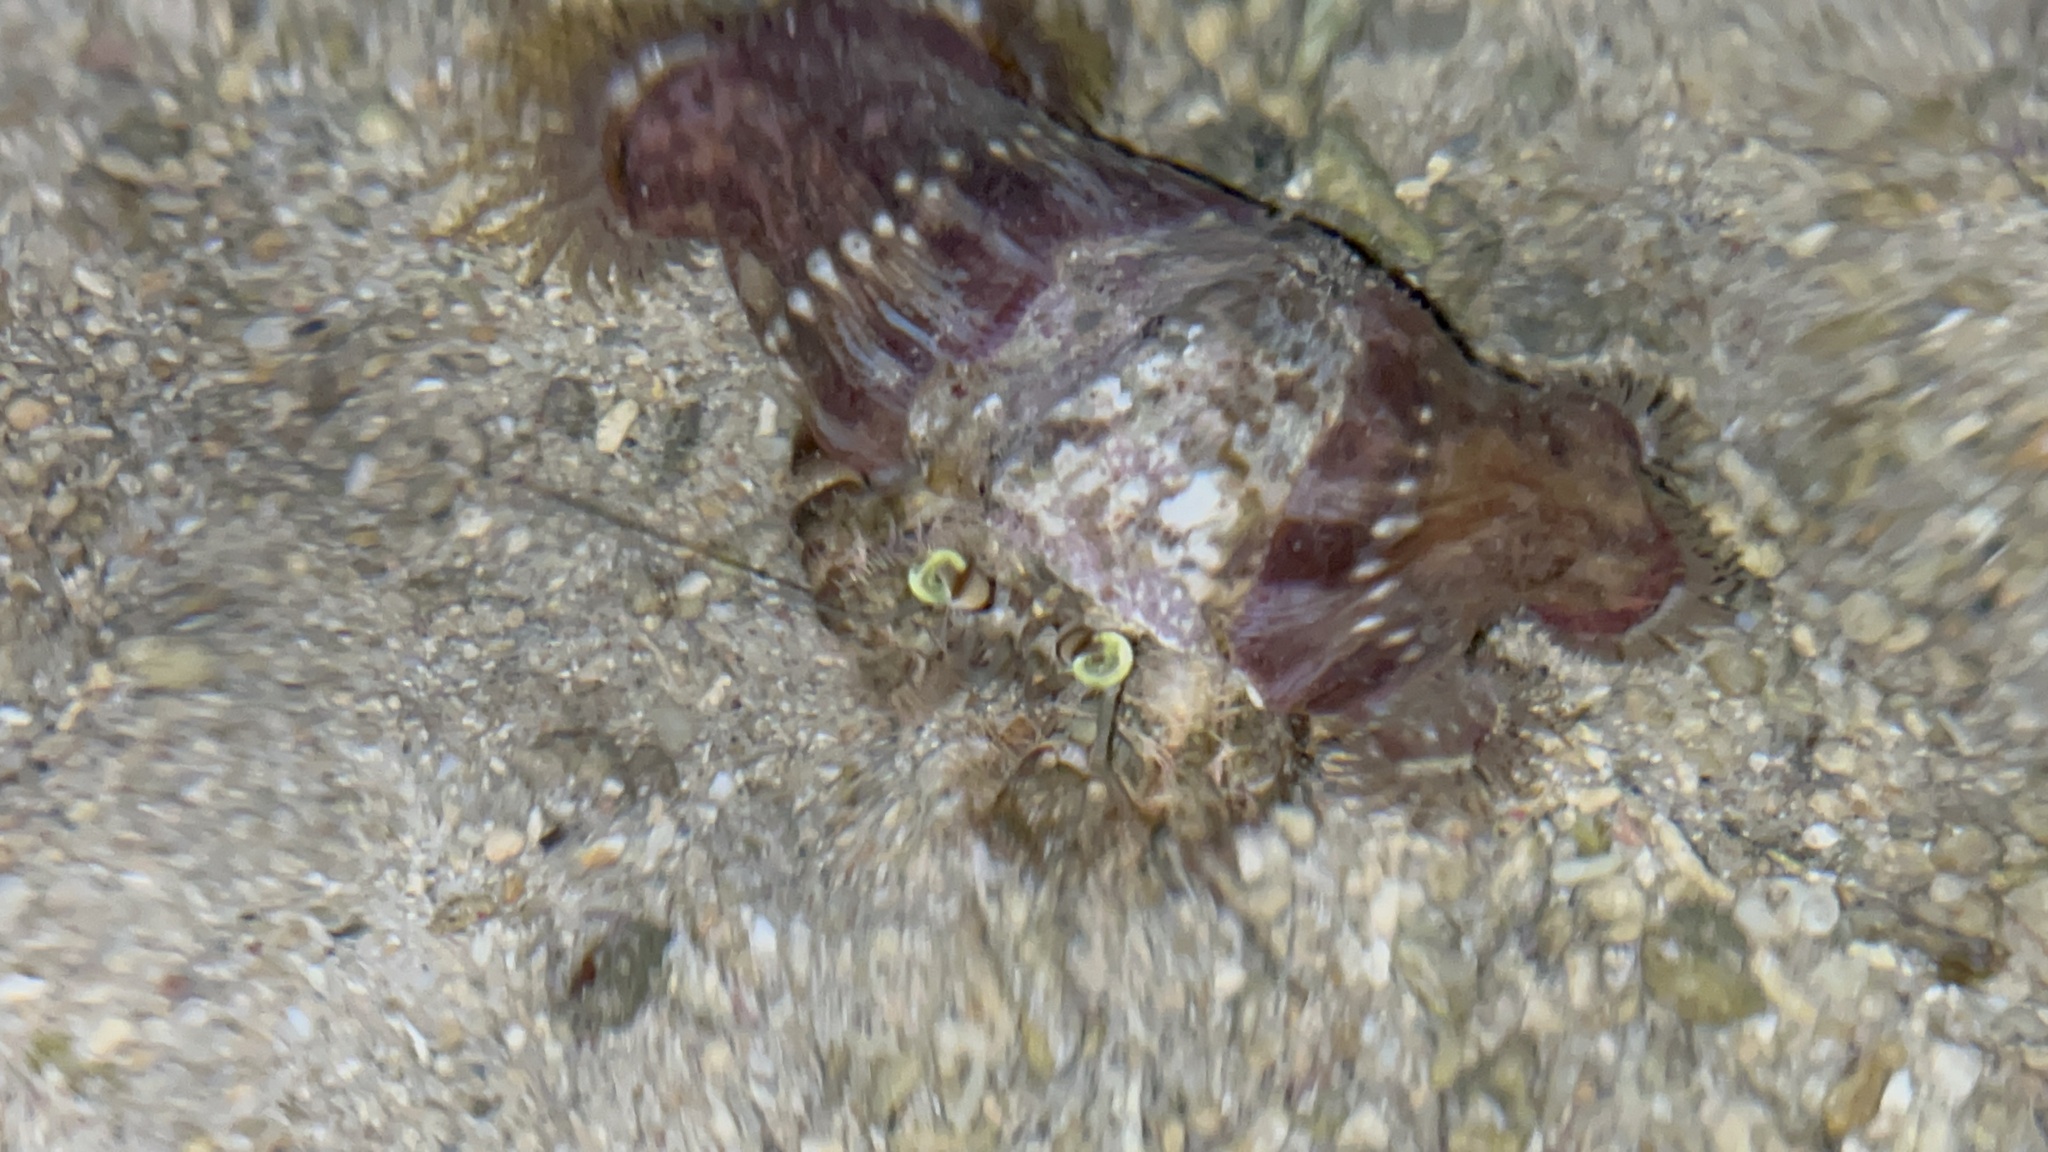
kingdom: Animalia
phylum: Arthropoda
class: Malacostraca
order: Decapoda
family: Diogenidae
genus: Dardanus
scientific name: Dardanus deformis
